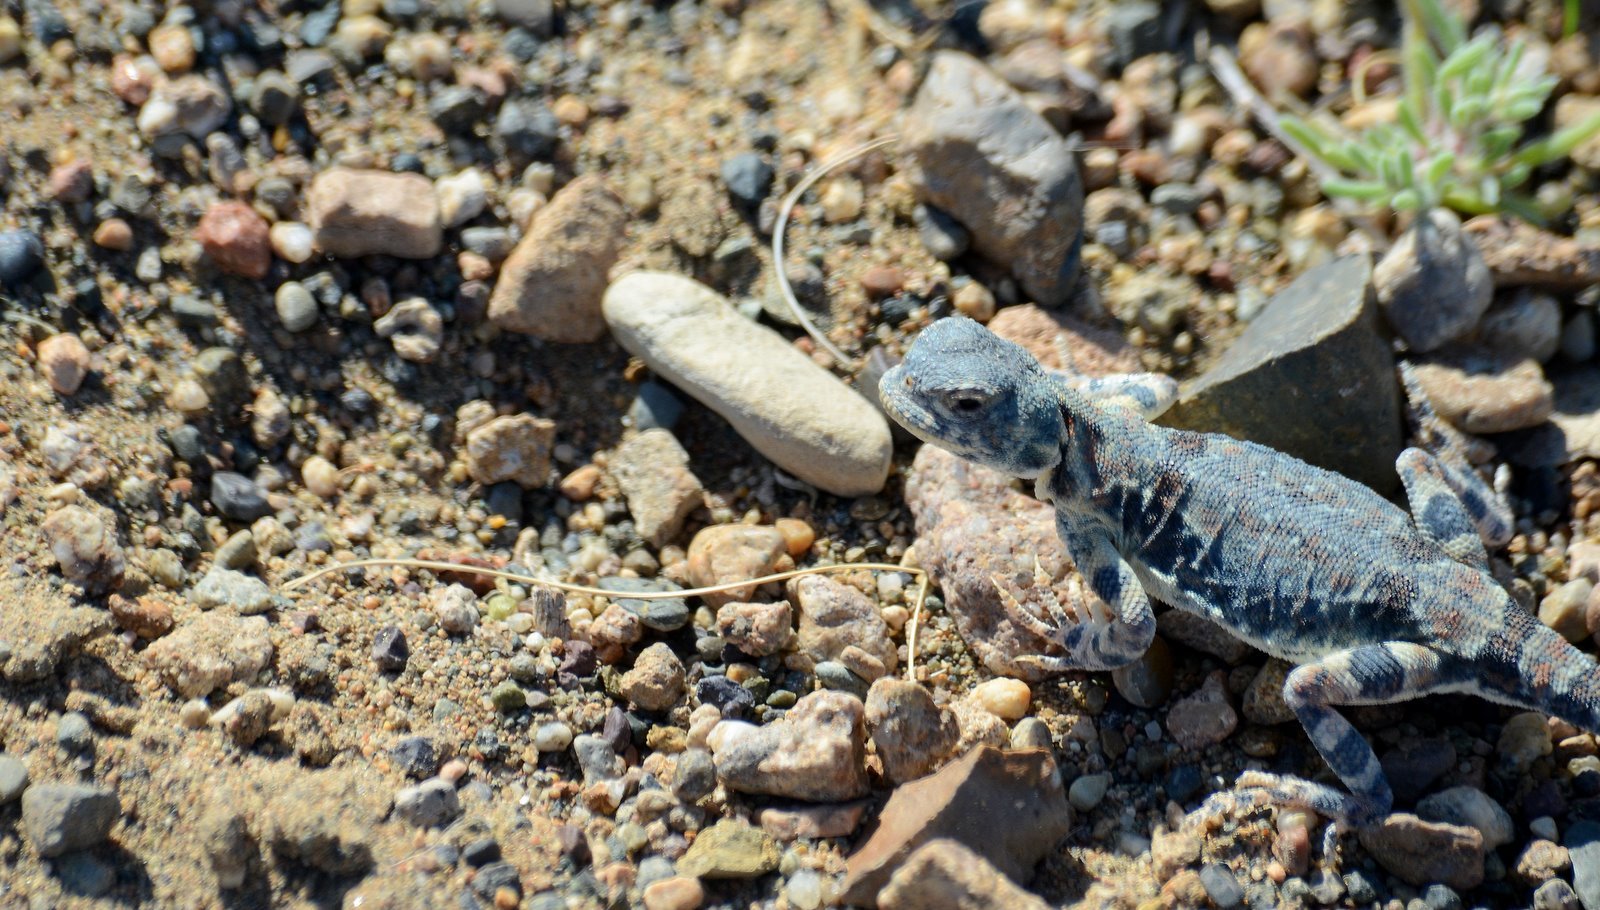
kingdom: Animalia
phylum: Chordata
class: Squamata
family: Agamidae
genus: Phrynocephalus
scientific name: Phrynocephalus versicolor
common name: Tuvan toad-headed agama
